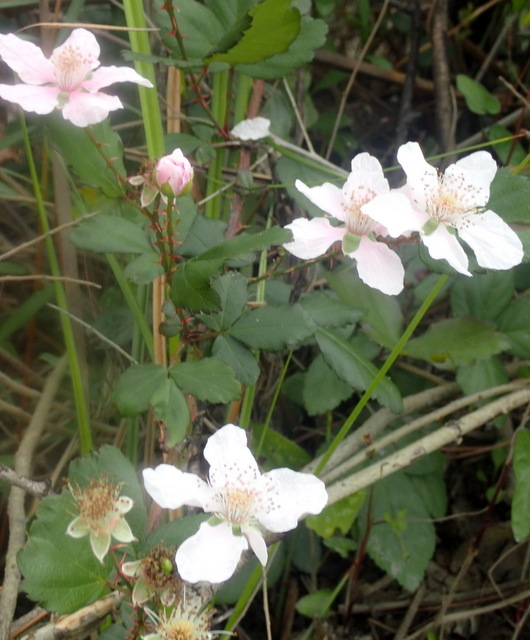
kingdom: Plantae
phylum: Tracheophyta
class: Magnoliopsida
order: Rosales
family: Rosaceae
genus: Rubus
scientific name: Rubus trivialis
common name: Southern dewberry
